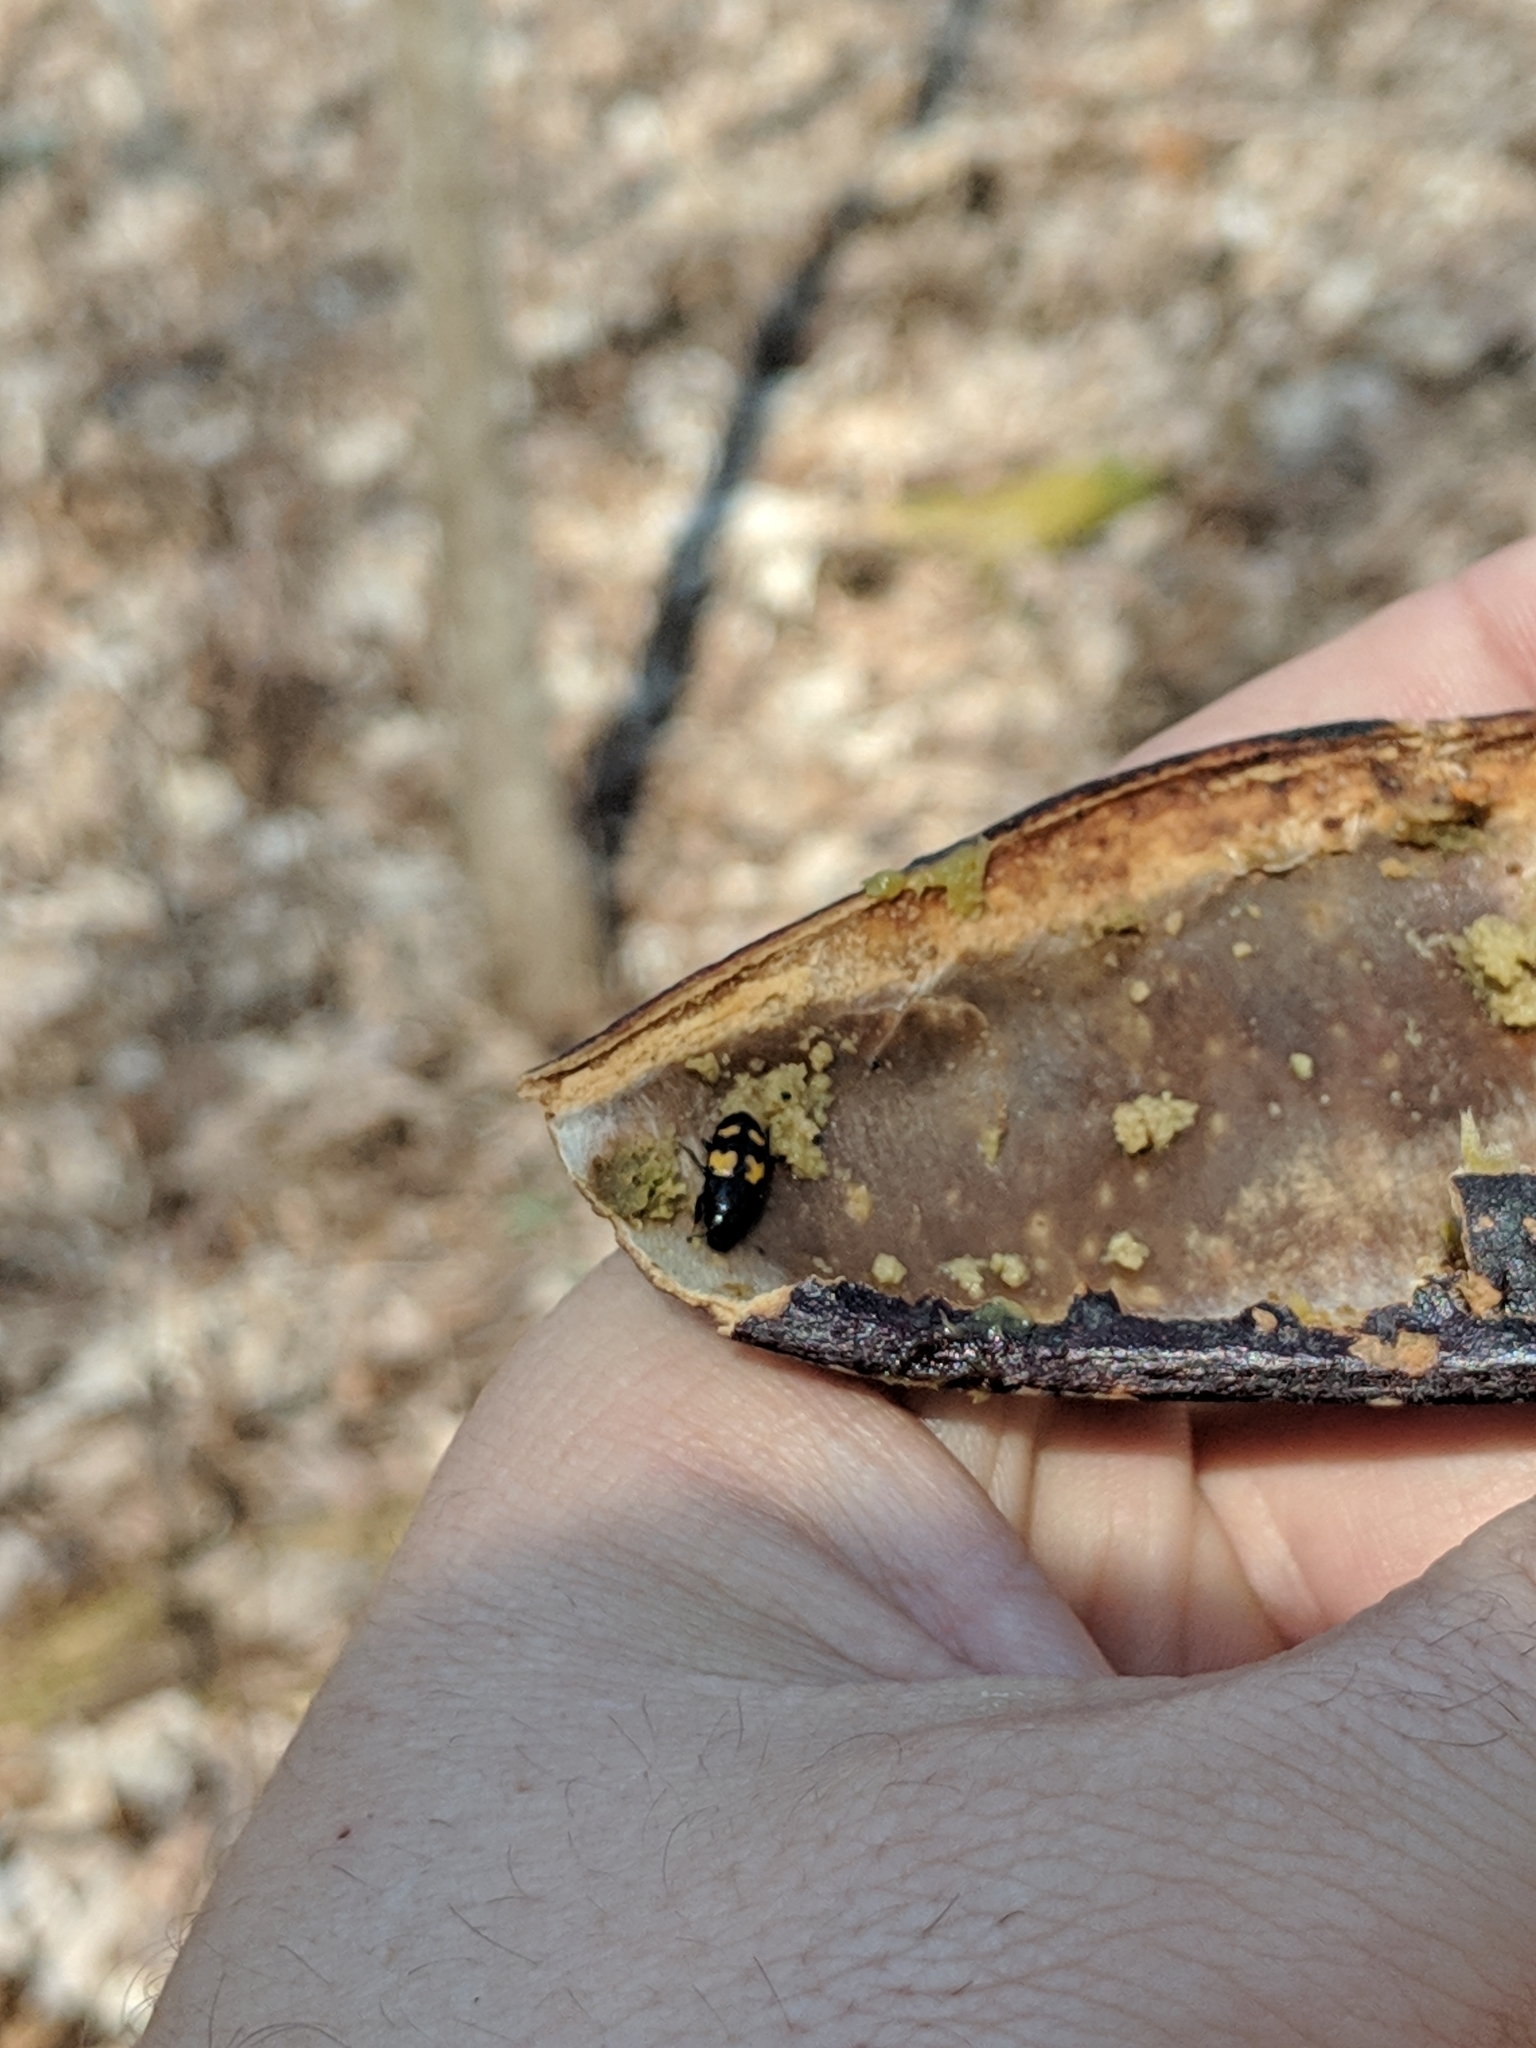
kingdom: Plantae
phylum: Tracheophyta
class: Magnoliopsida
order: Fabales
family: Fabaceae
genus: Gymnocladus
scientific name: Gymnocladus dioicus
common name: Kentucky coffee-tree
